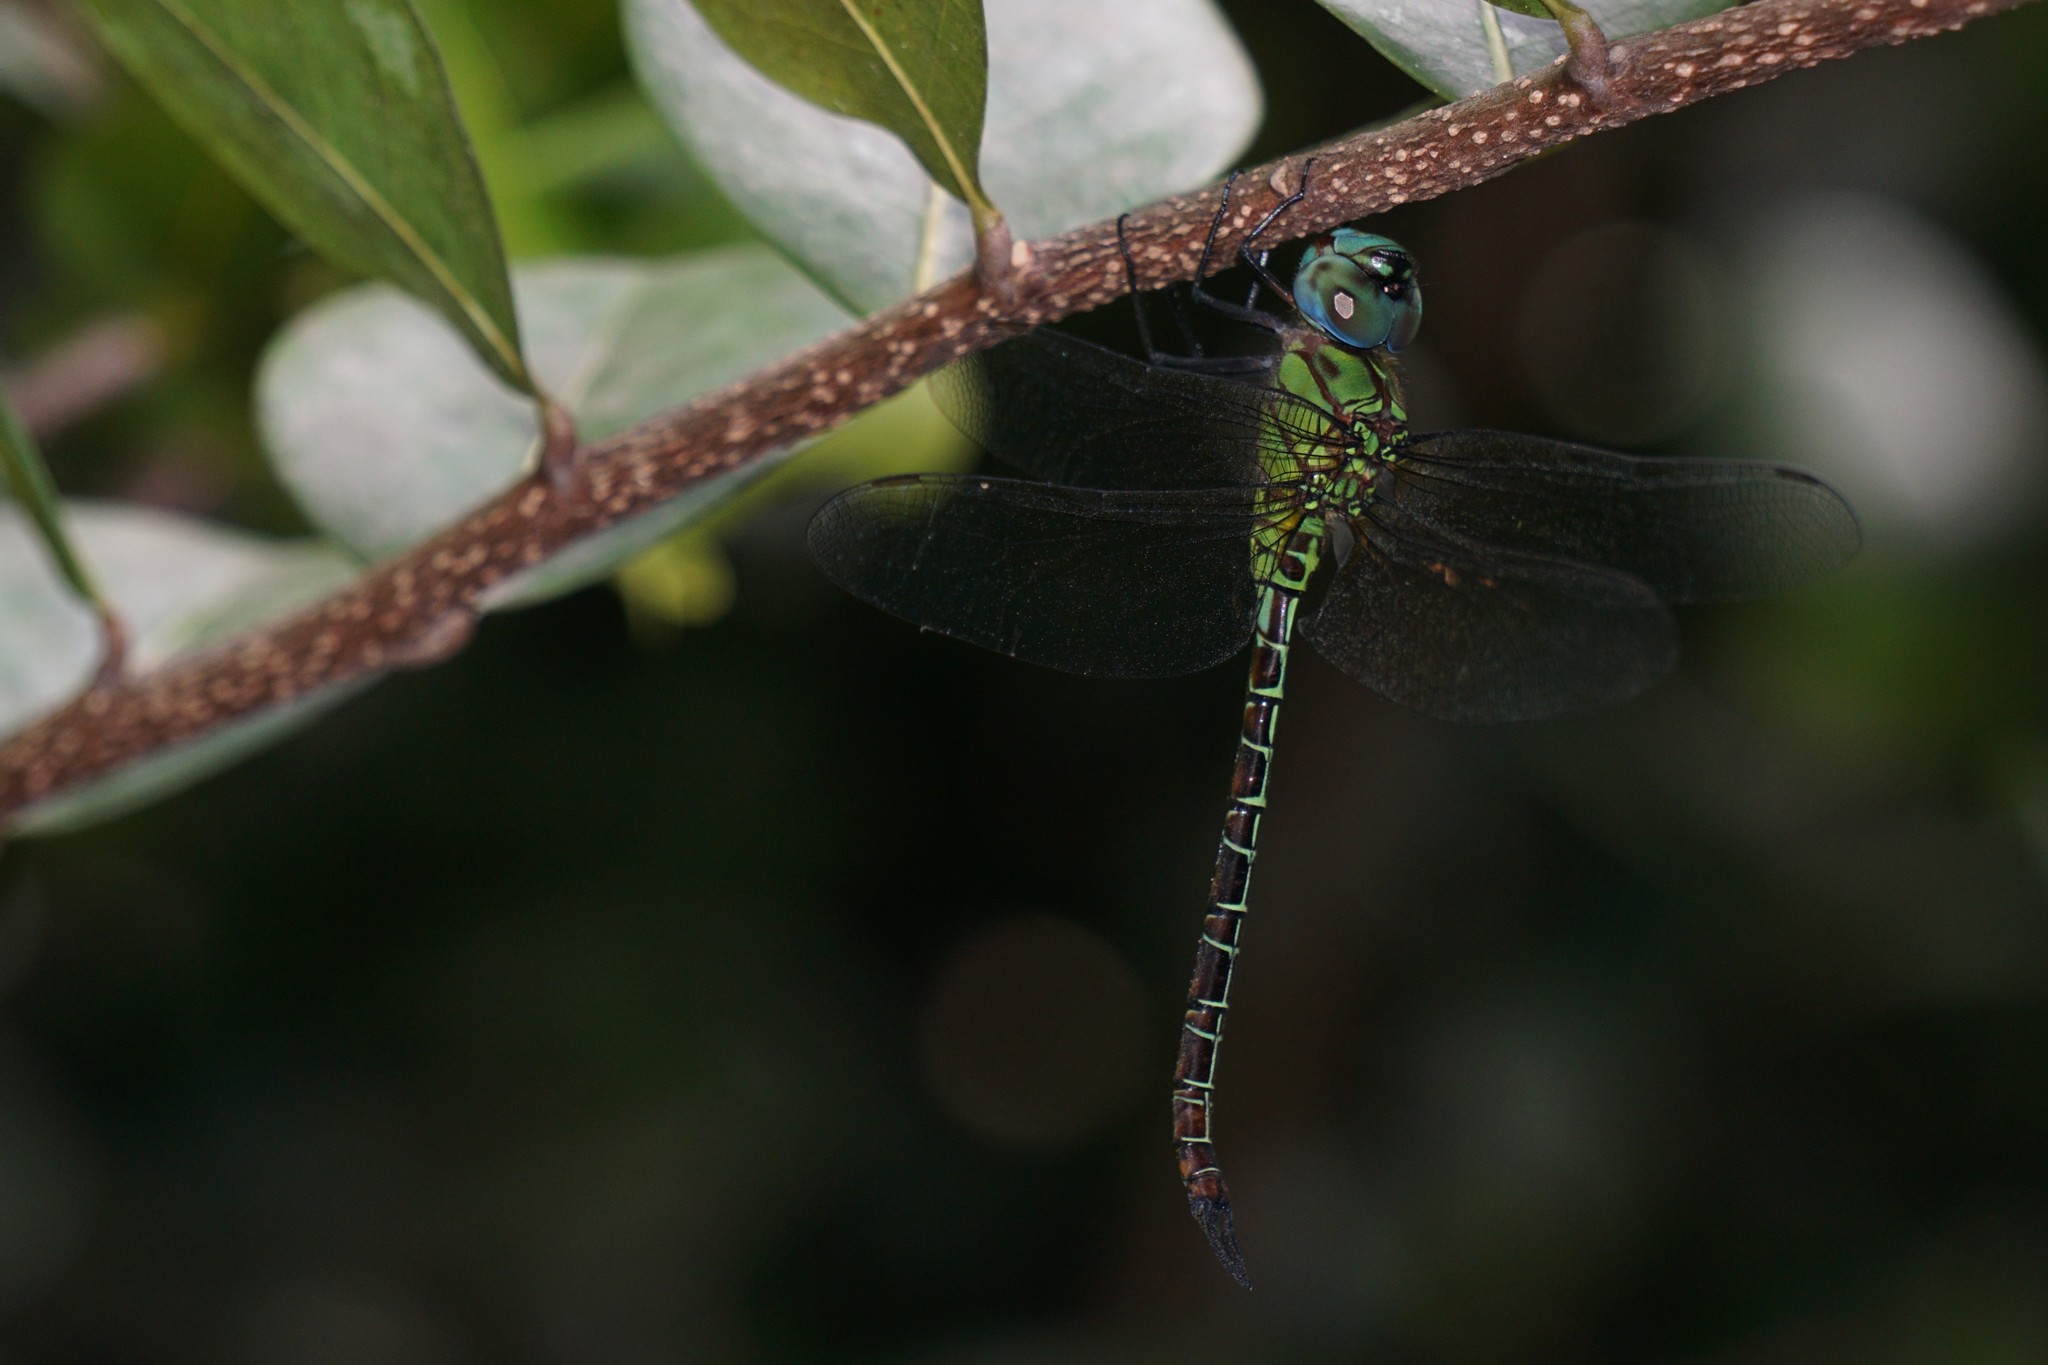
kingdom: Animalia
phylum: Arthropoda
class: Insecta
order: Odonata
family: Aeshnidae
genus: Coryphaeschna
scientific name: Coryphaeschna adnexa
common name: Blue-faced darner
